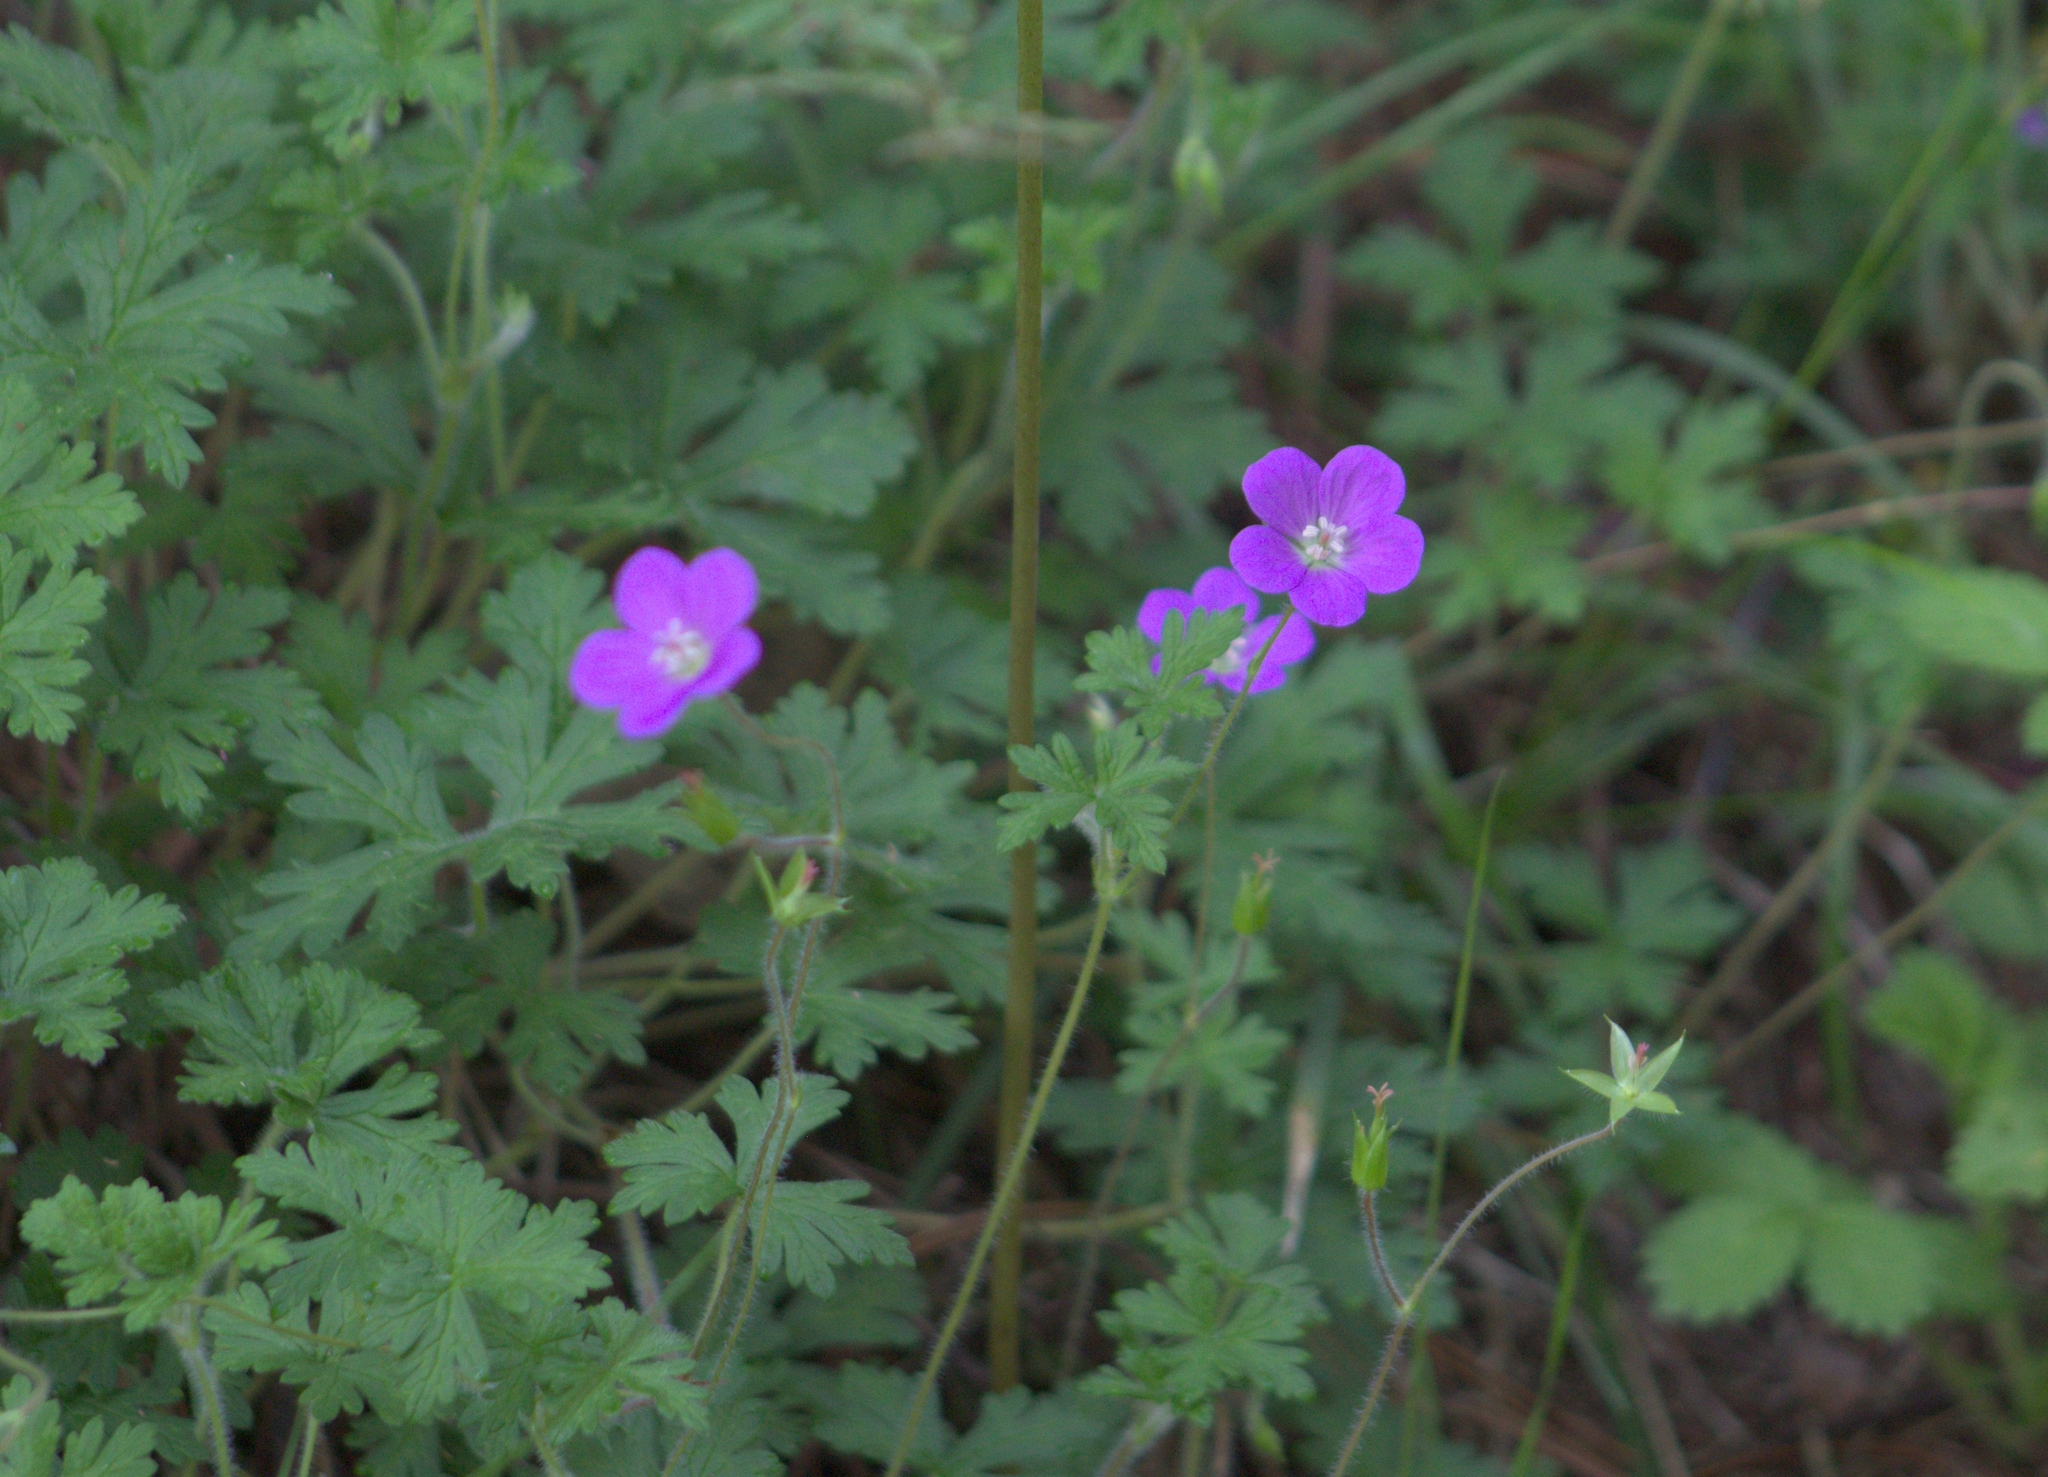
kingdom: Plantae
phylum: Tracheophyta
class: Magnoliopsida
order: Geraniales
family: Geraniaceae
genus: Geranium
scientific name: Geranium goldmanii
